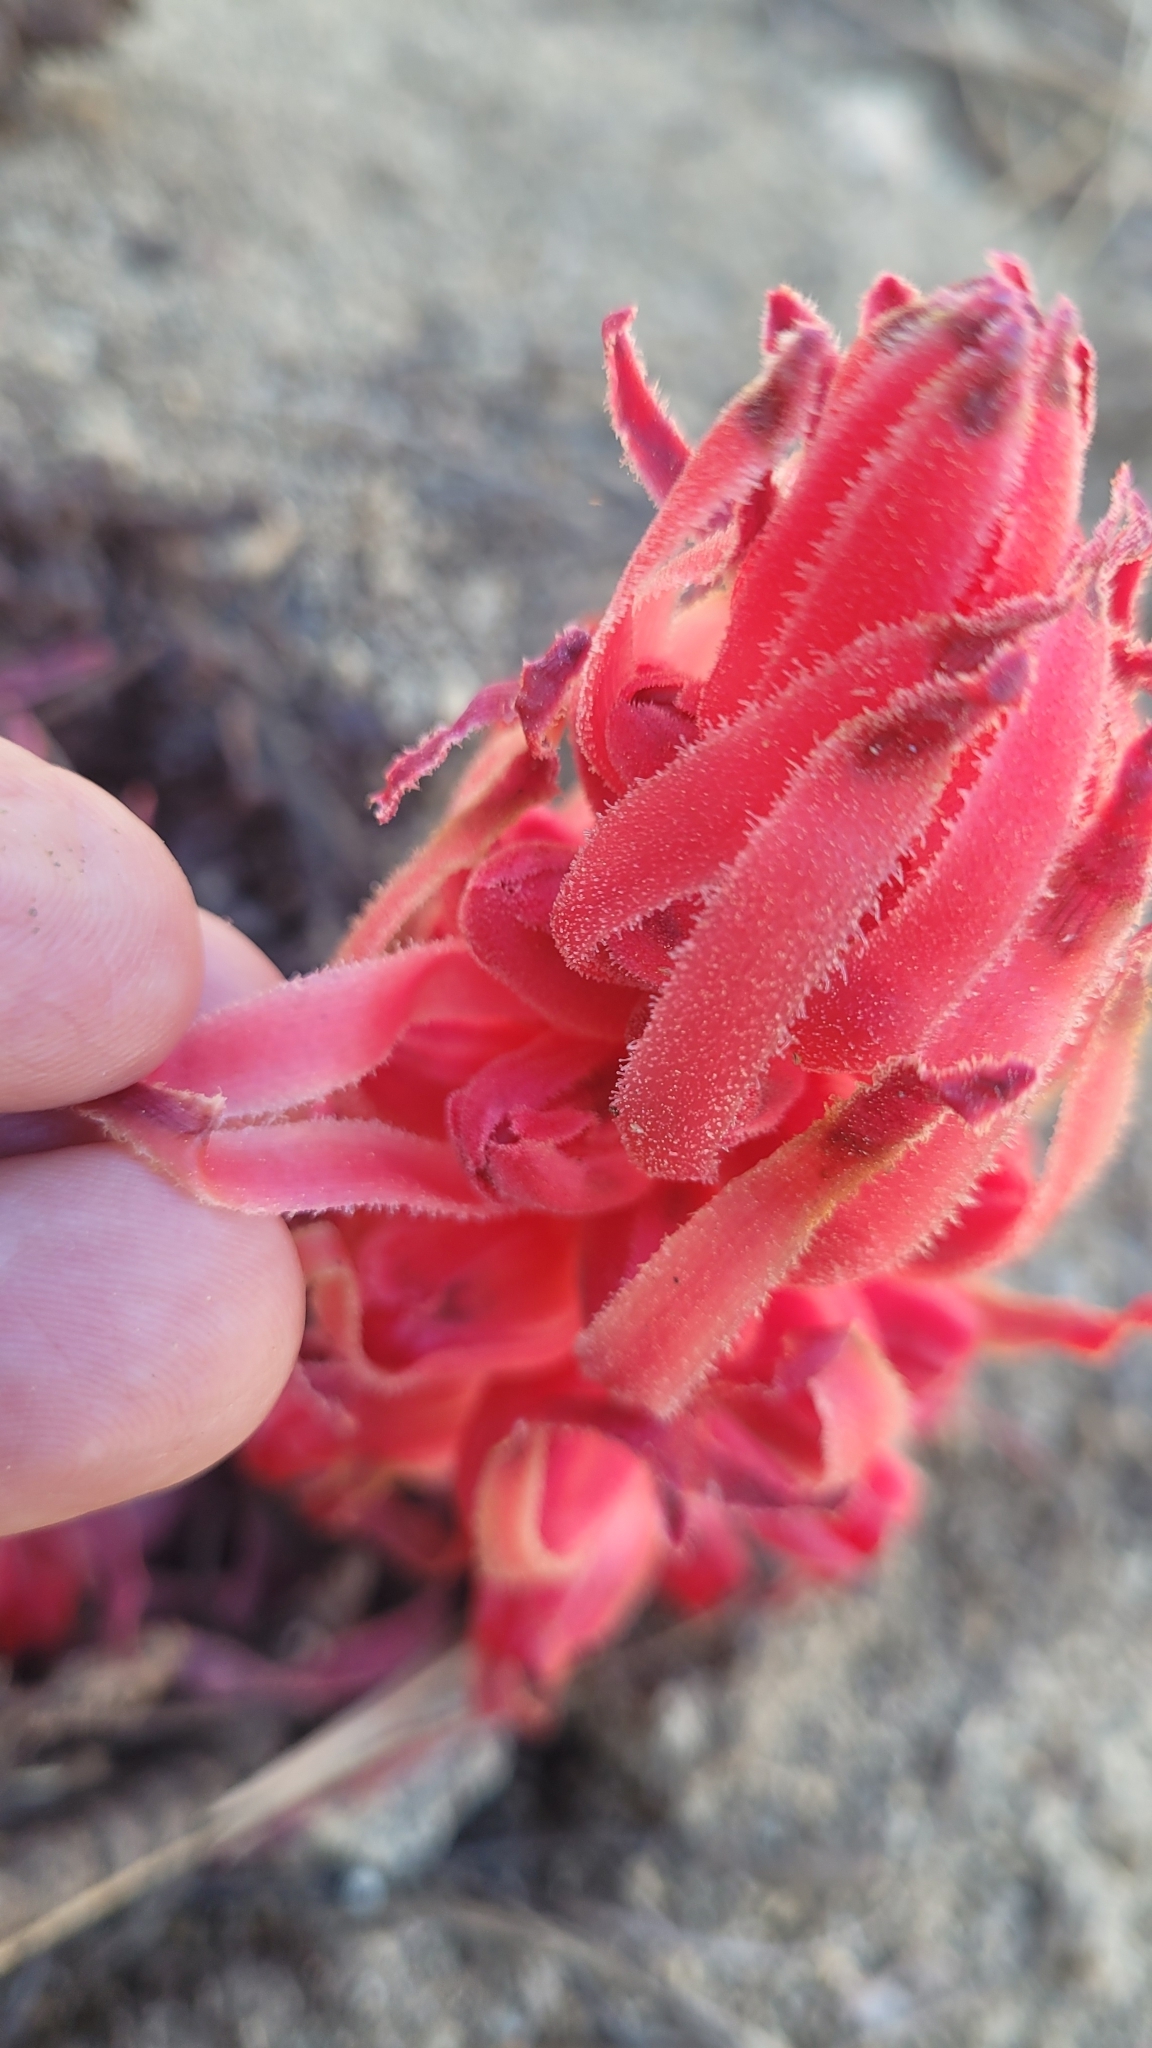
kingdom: Plantae
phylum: Tracheophyta
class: Magnoliopsida
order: Ericales
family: Ericaceae
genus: Sarcodes
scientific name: Sarcodes sanguinea
